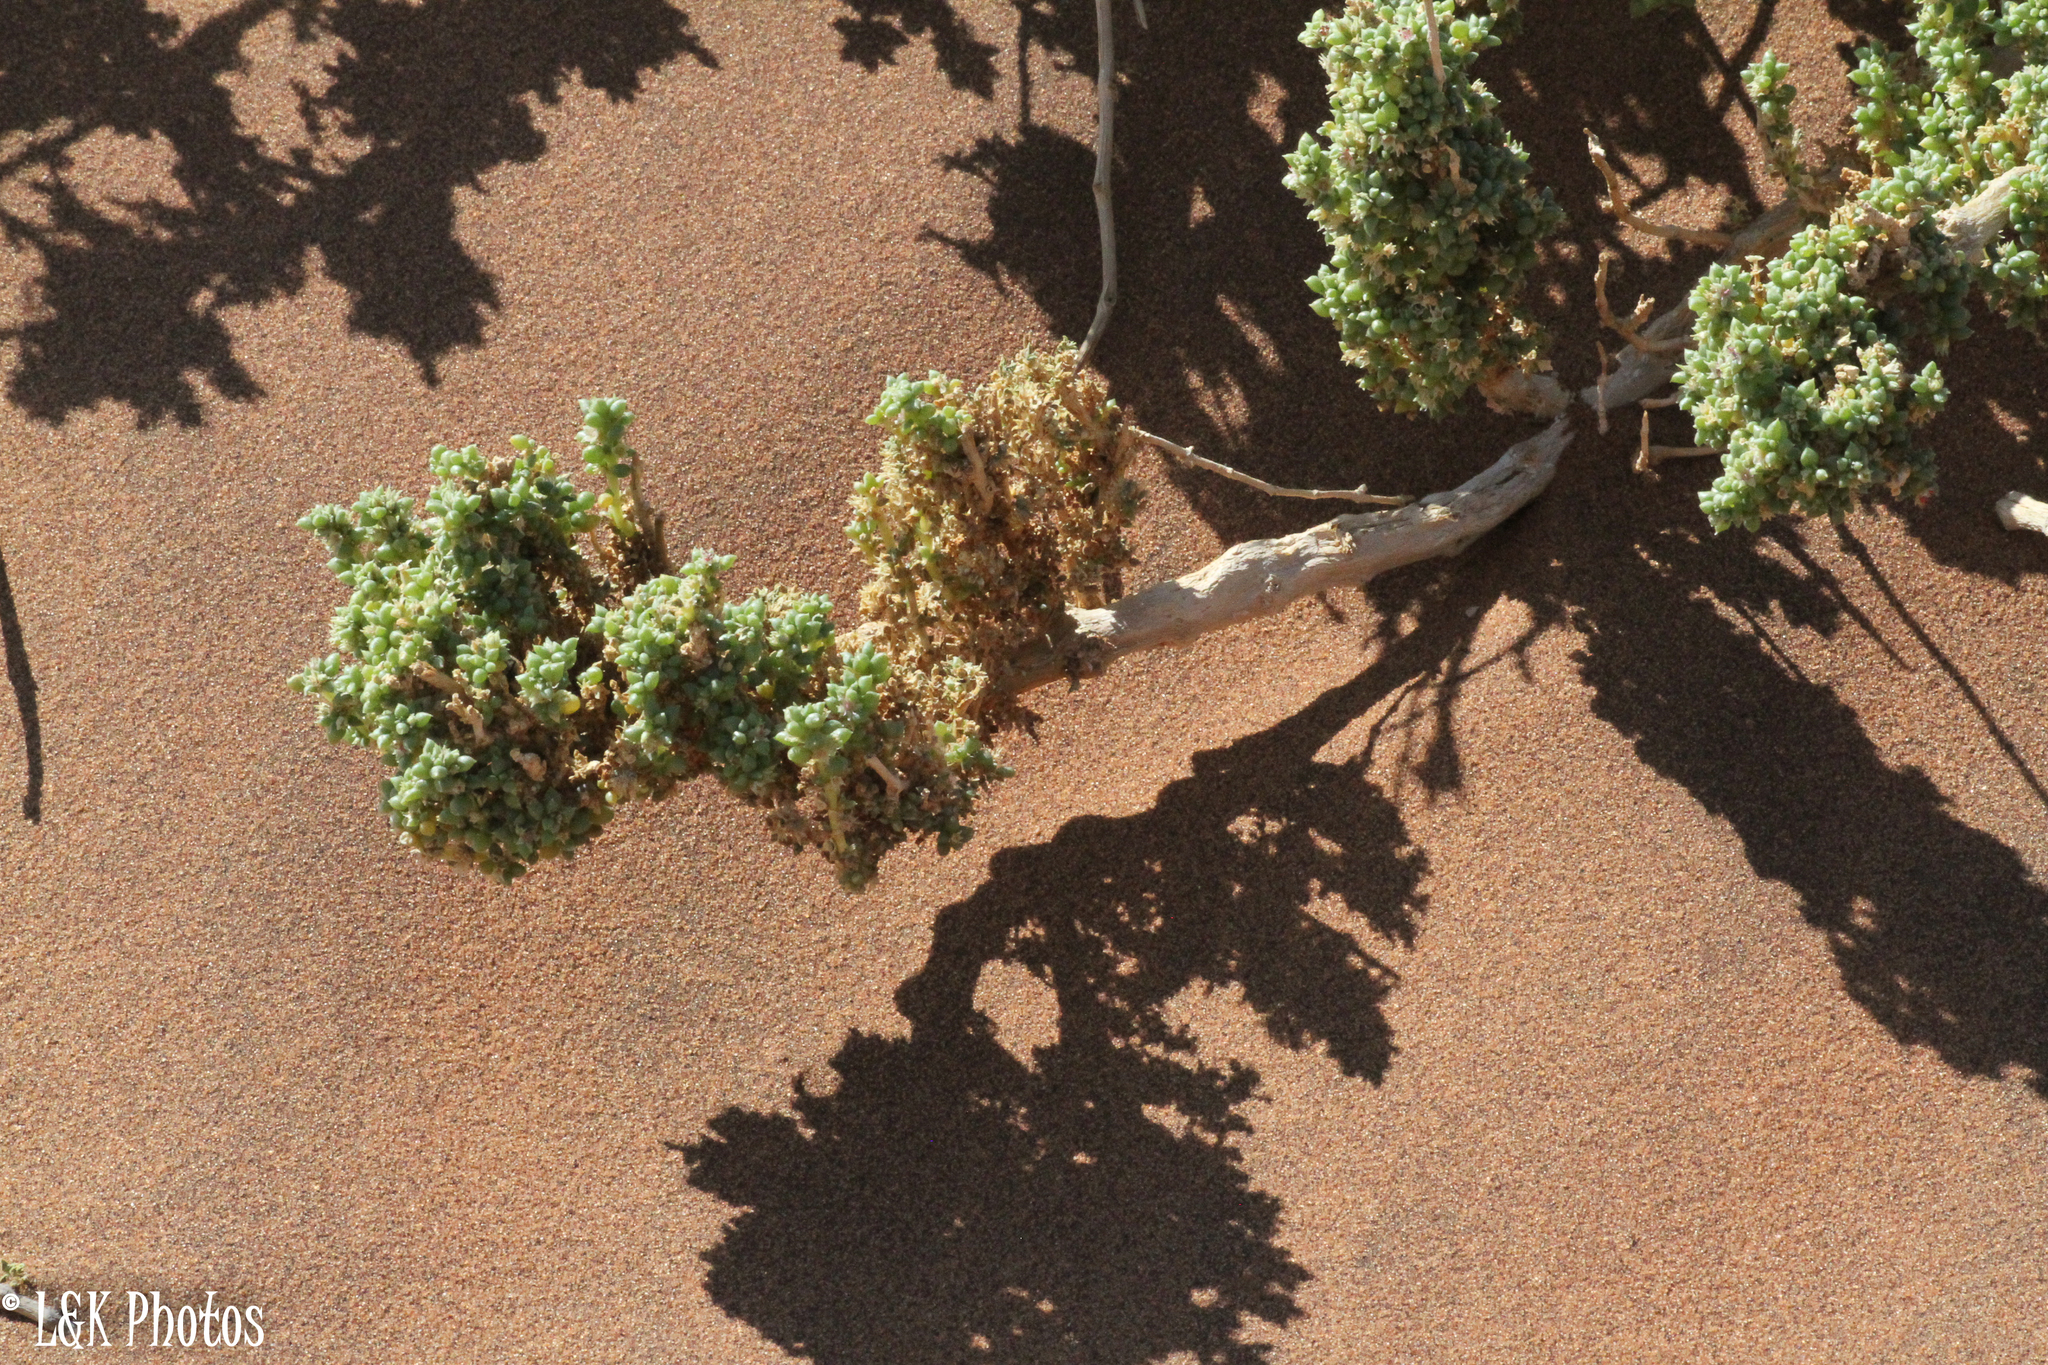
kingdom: Plantae
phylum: Tracheophyta
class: Magnoliopsida
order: Caryophyllales
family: Aizoaceae
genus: Trianthema
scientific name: Trianthema hereroensis
